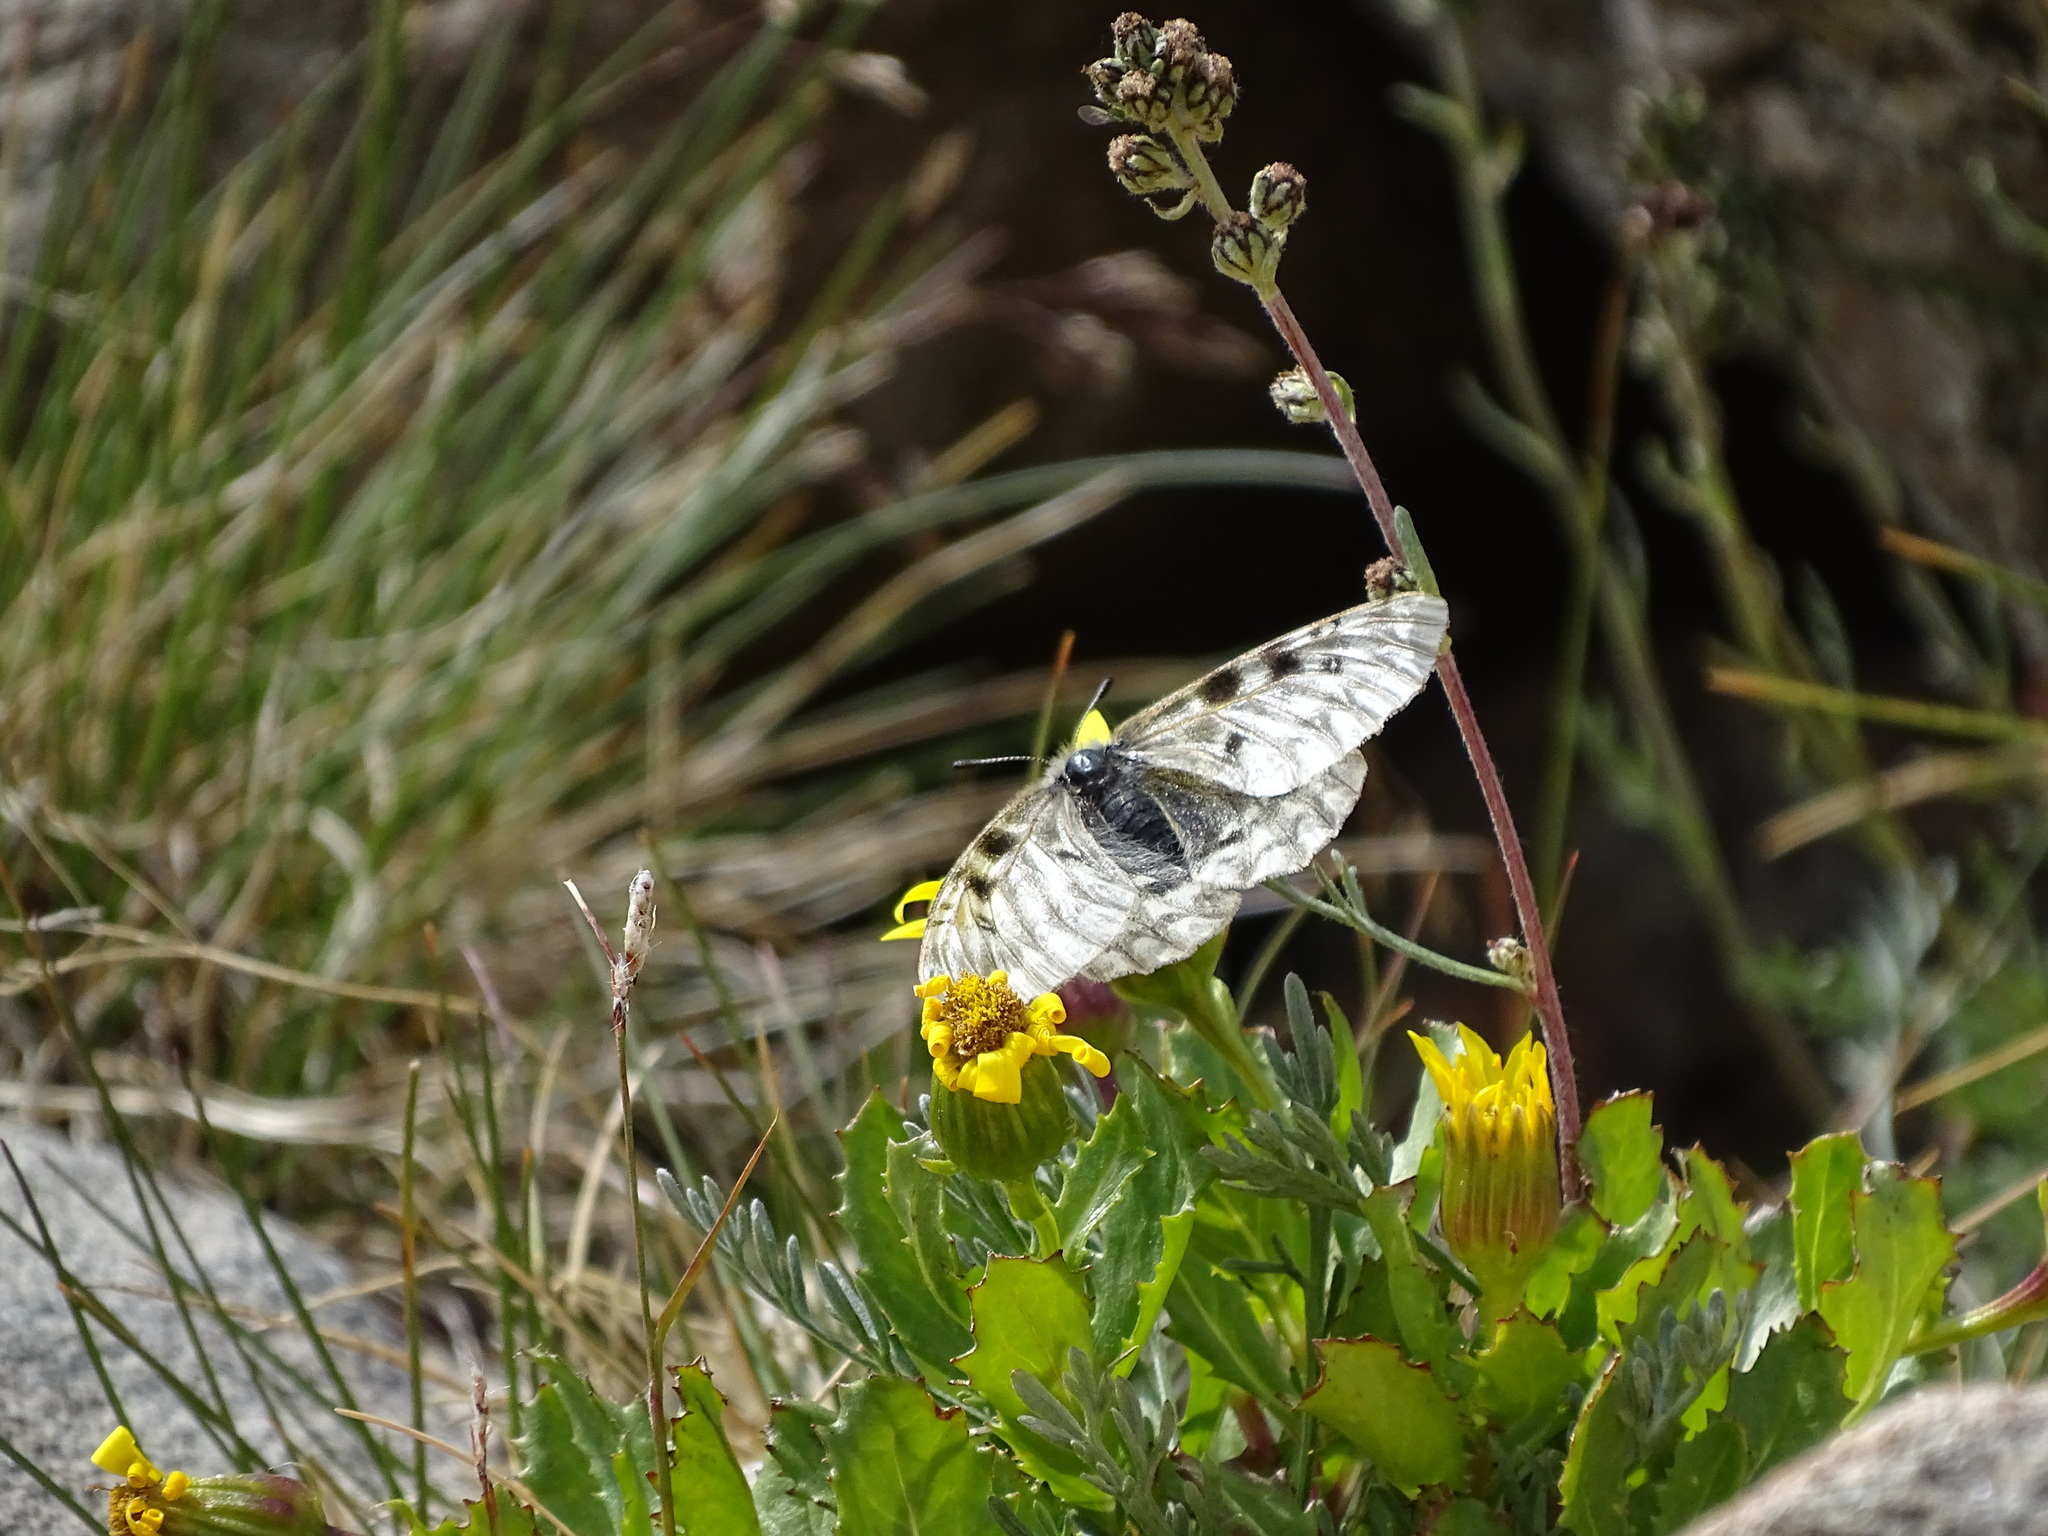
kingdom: Animalia
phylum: Arthropoda
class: Insecta
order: Lepidoptera
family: Papilionidae
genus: Parnassius
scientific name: Parnassius smintheus
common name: Mountain parnassian
